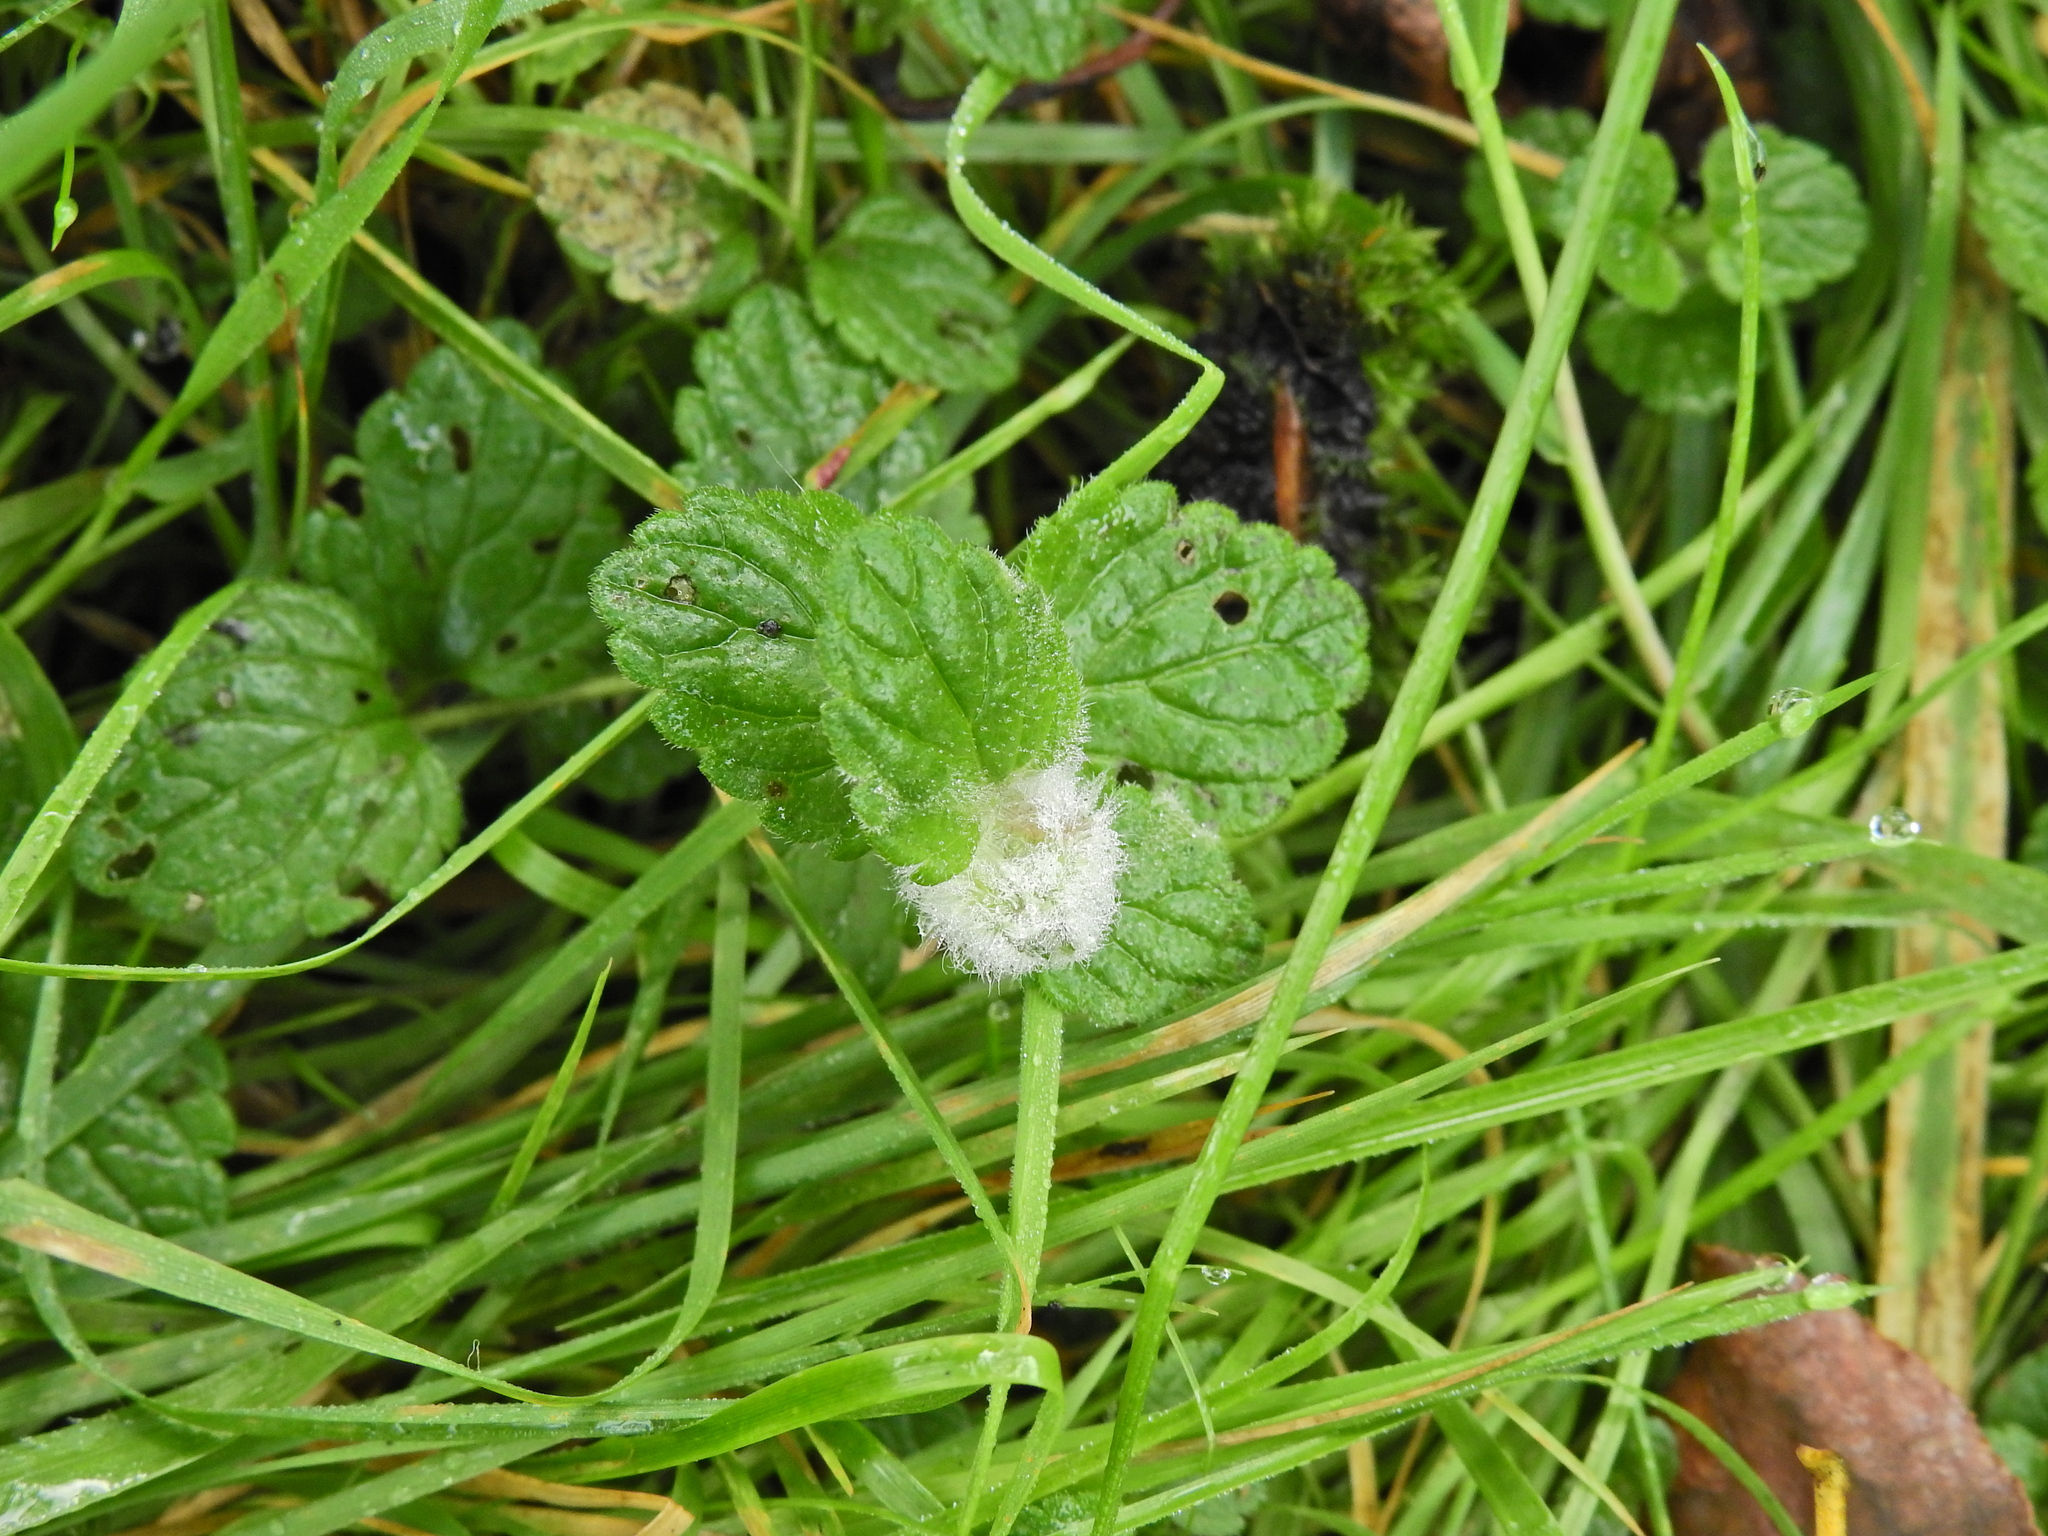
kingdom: Animalia
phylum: Arthropoda
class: Insecta
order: Diptera
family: Cecidomyiidae
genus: Jaapiella
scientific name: Jaapiella veronicae
